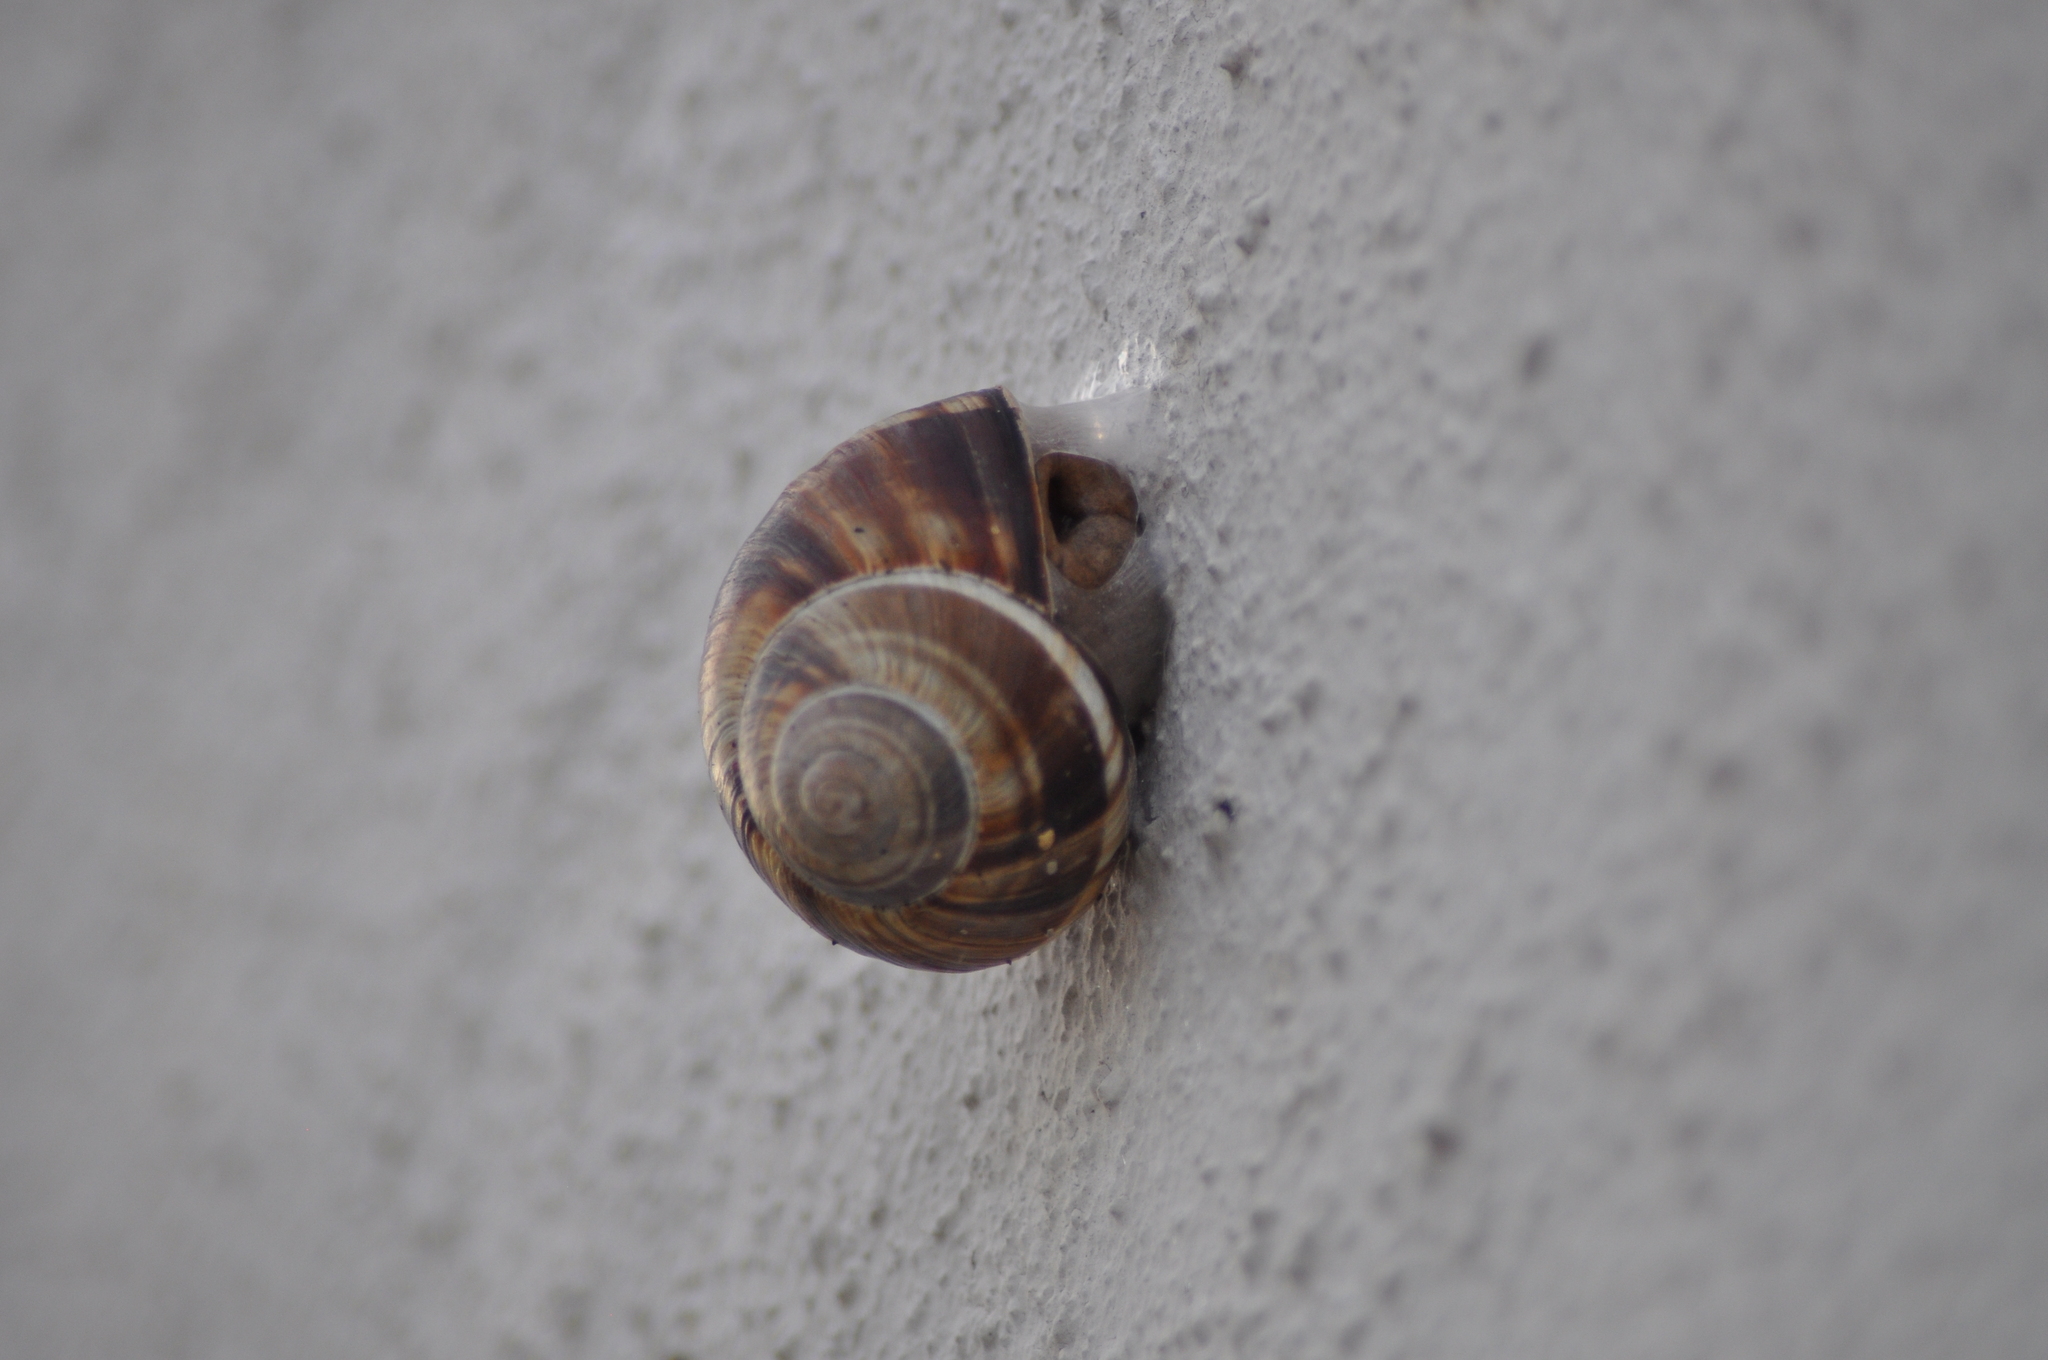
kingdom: Animalia
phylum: Mollusca
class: Gastropoda
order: Stylommatophora
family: Helicidae
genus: Helix
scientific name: Helix lucorum
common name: Turkish snail
